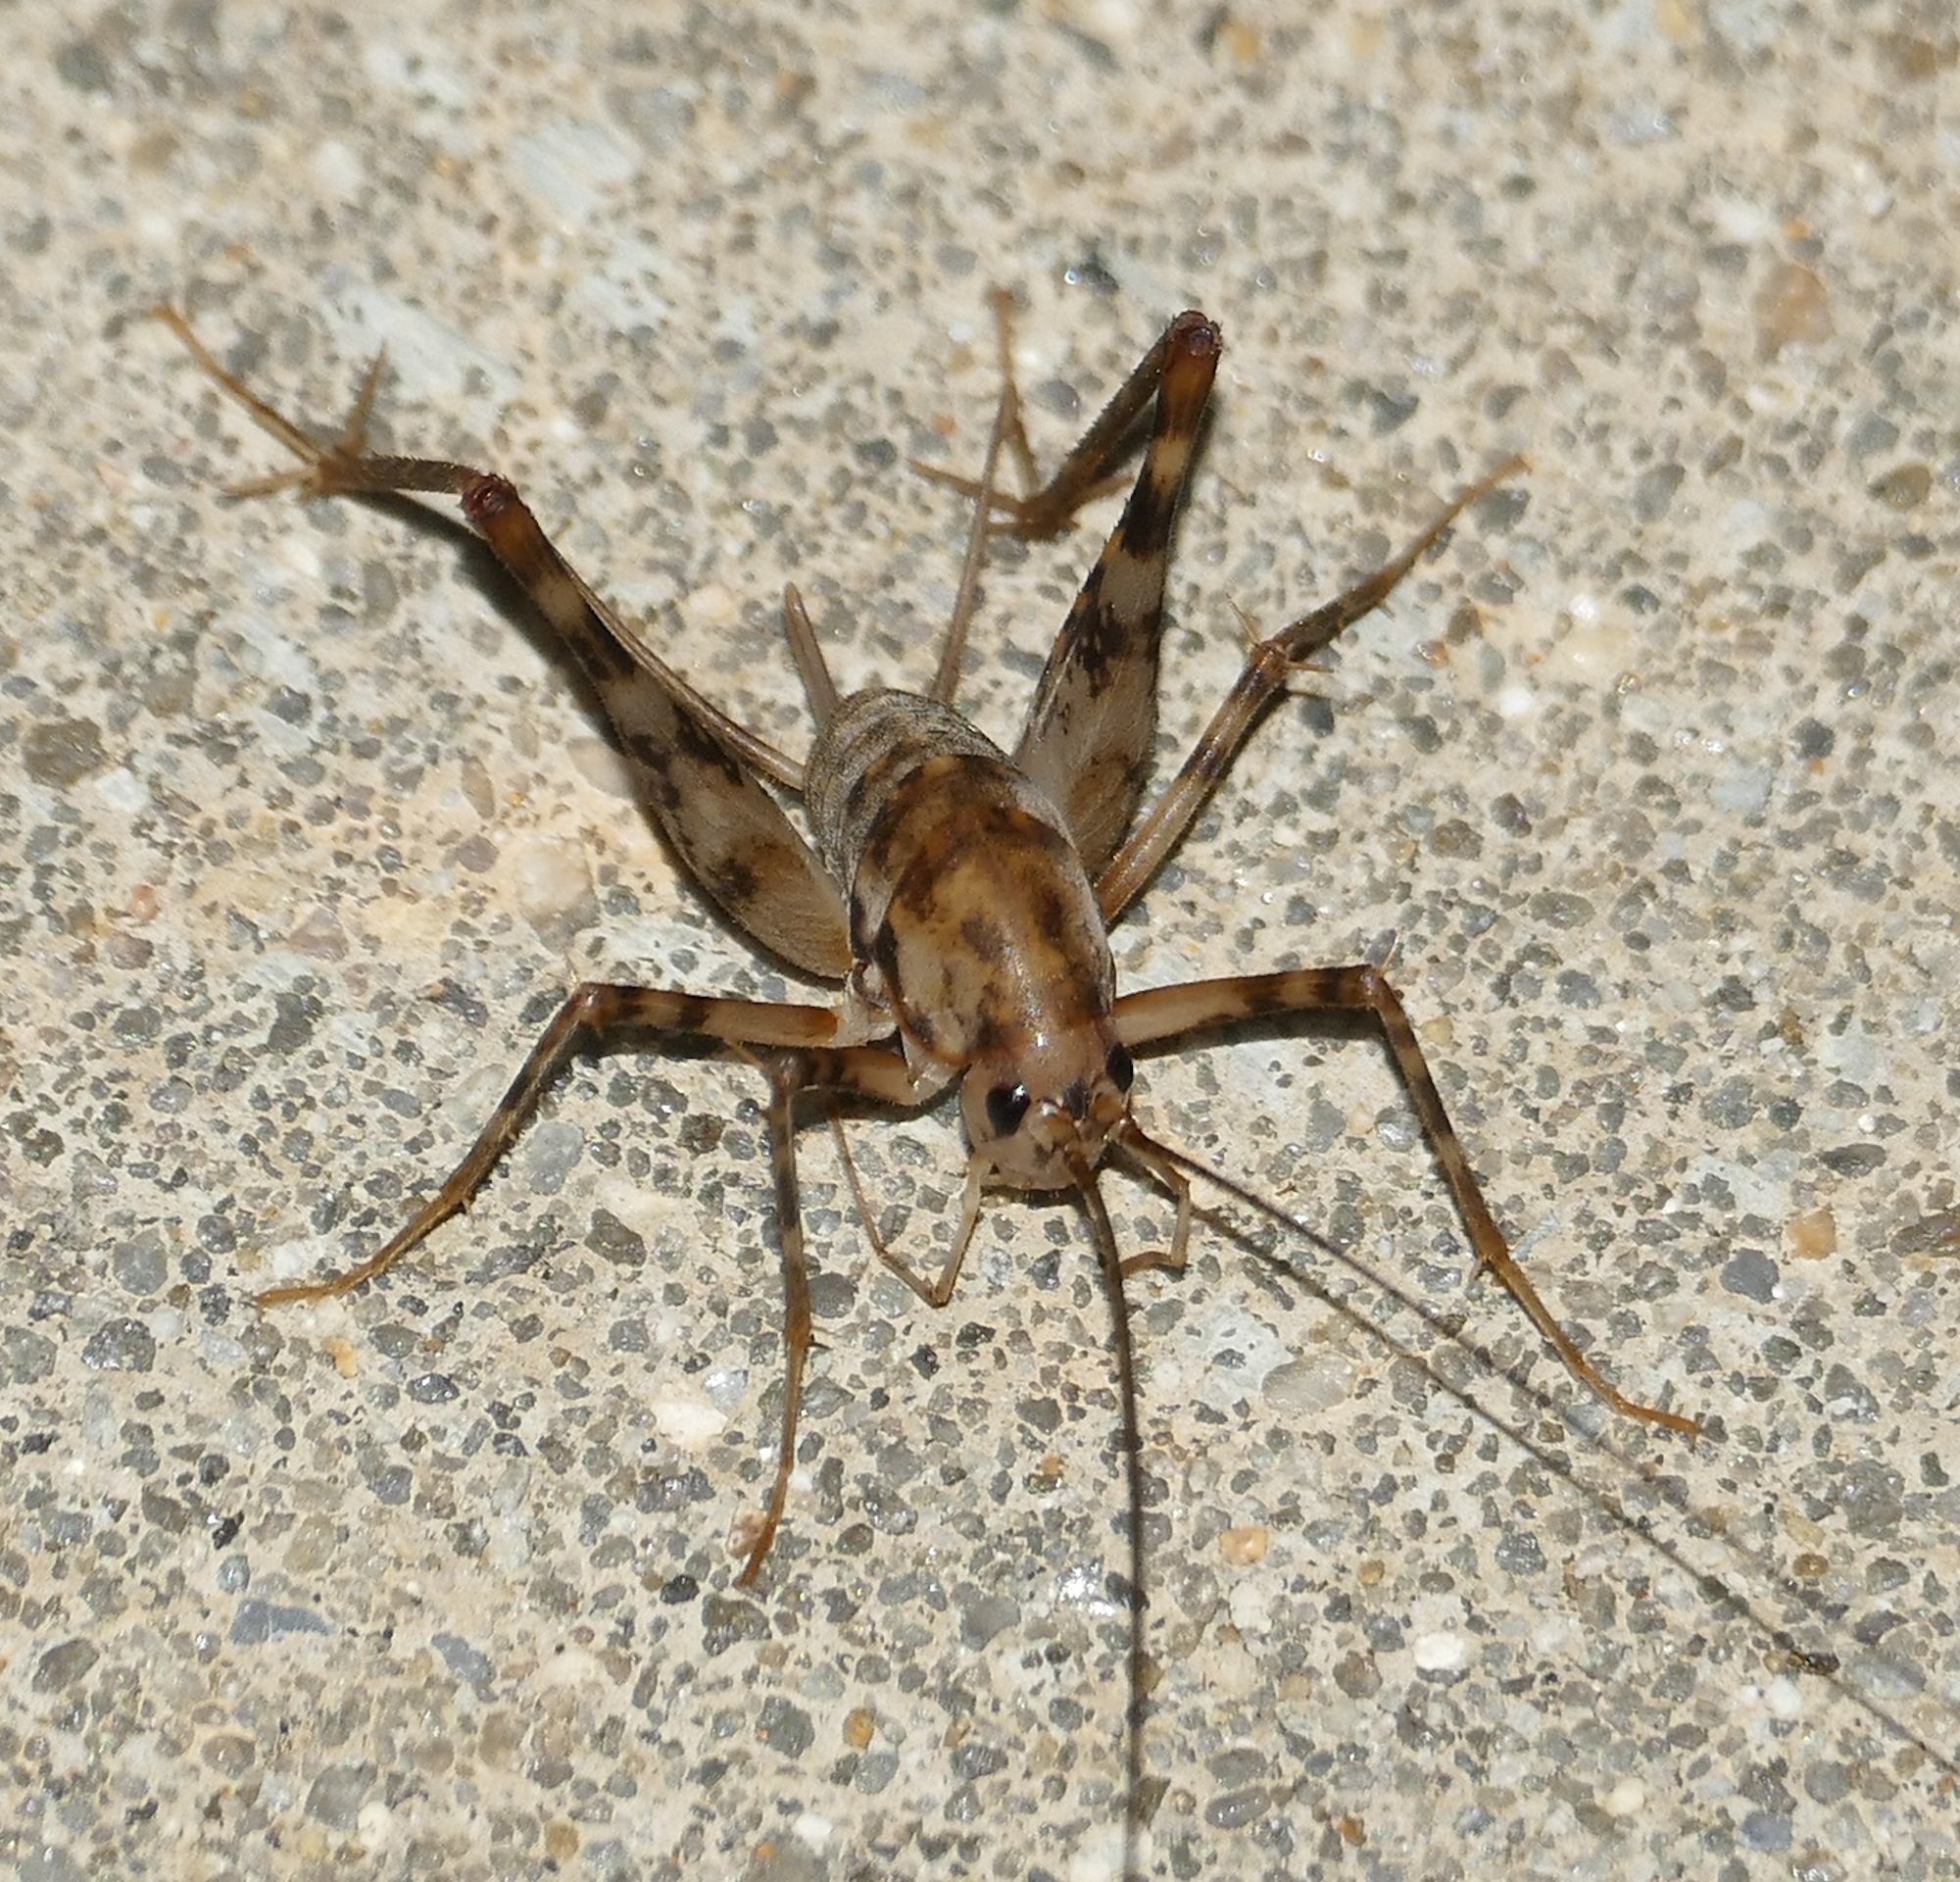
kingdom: Animalia
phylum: Arthropoda
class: Insecta
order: Orthoptera
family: Rhaphidophoridae
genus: Tachycines
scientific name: Tachycines asynamorus
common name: Greenhouse camel cricket
